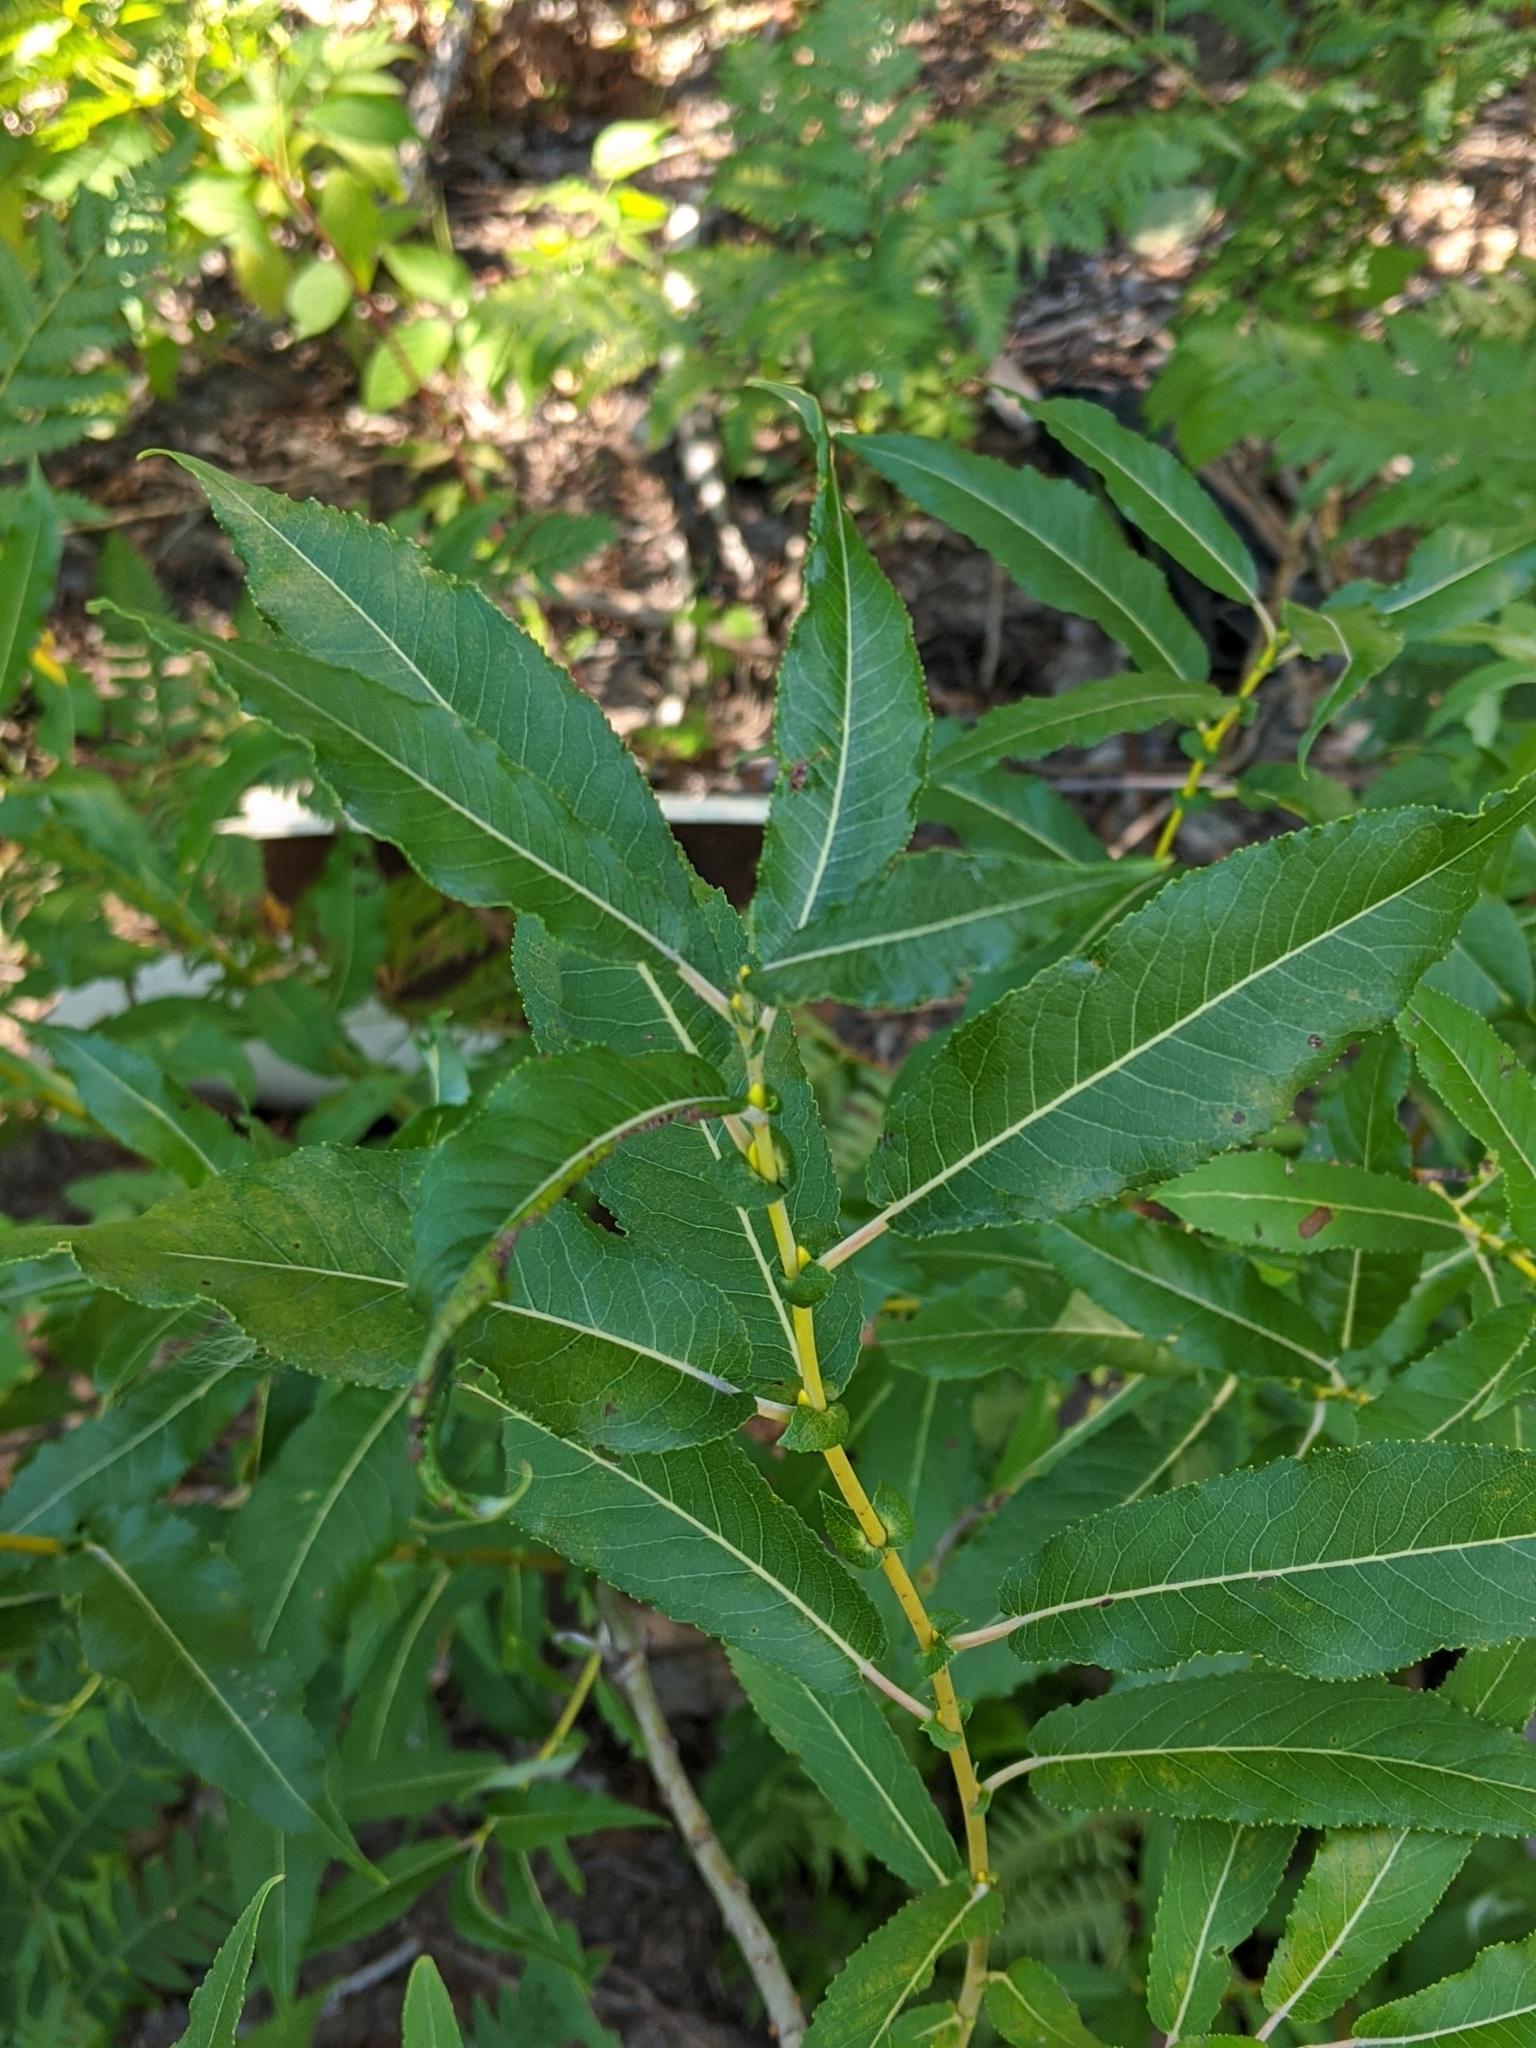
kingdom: Plantae
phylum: Tracheophyta
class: Magnoliopsida
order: Malpighiales
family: Salicaceae
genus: Salix
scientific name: Salix eriocephala
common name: Heart-leaved willow
